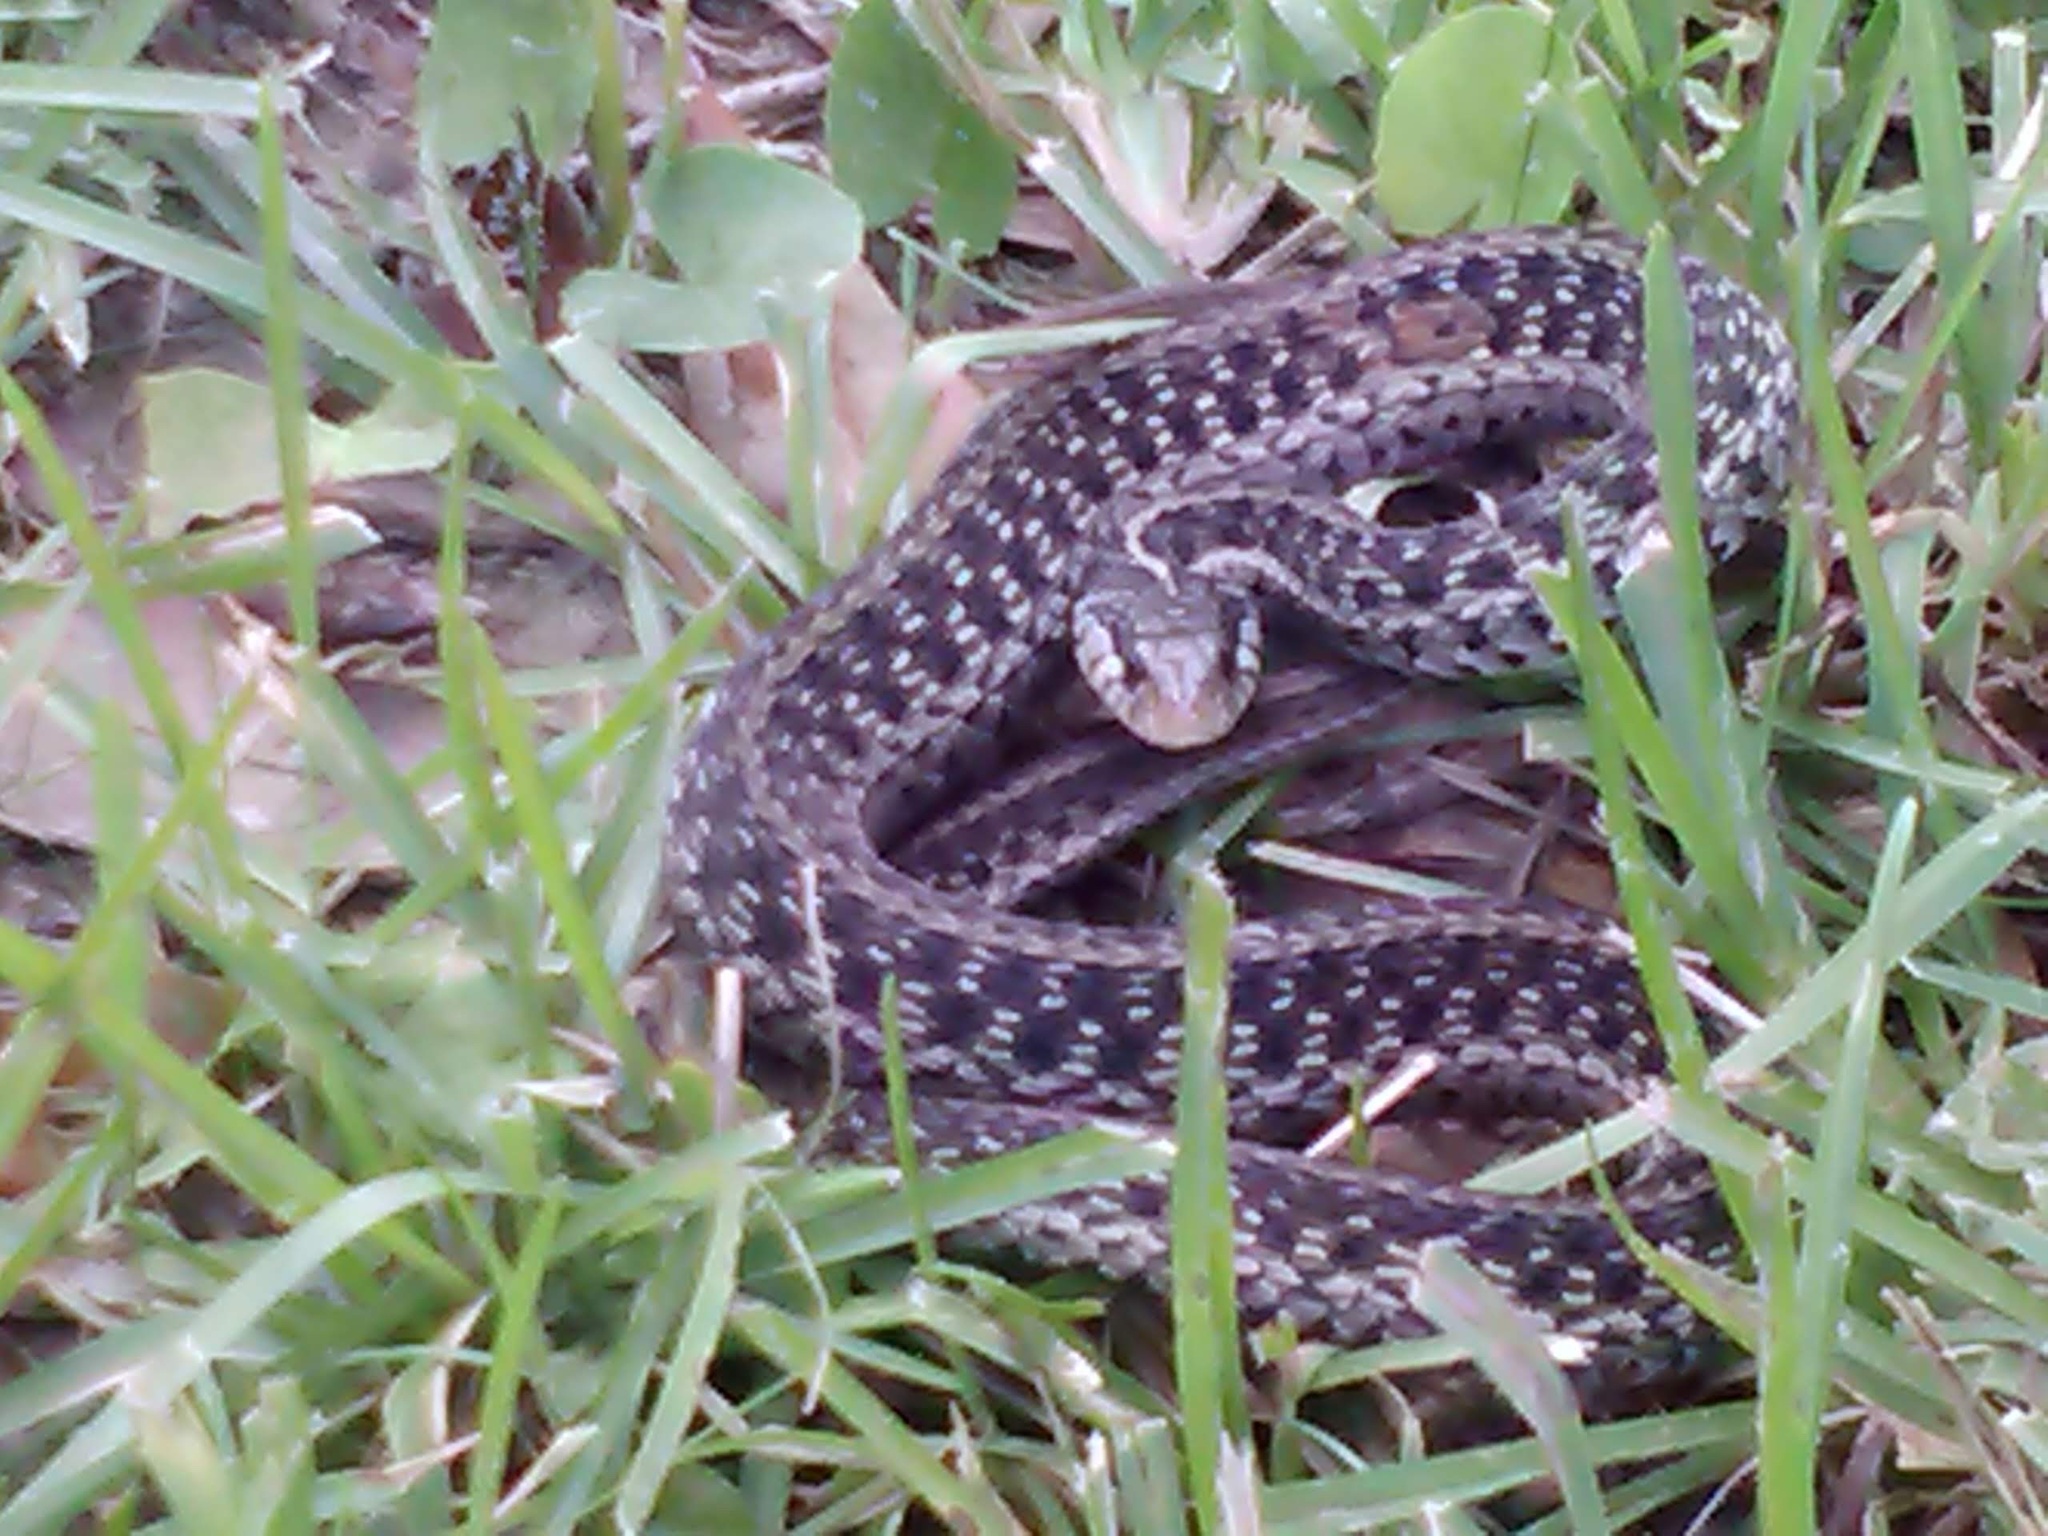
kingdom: Animalia
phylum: Chordata
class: Squamata
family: Colubridae
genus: Thamnophis
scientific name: Thamnophis sirtalis
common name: Common garter snake
